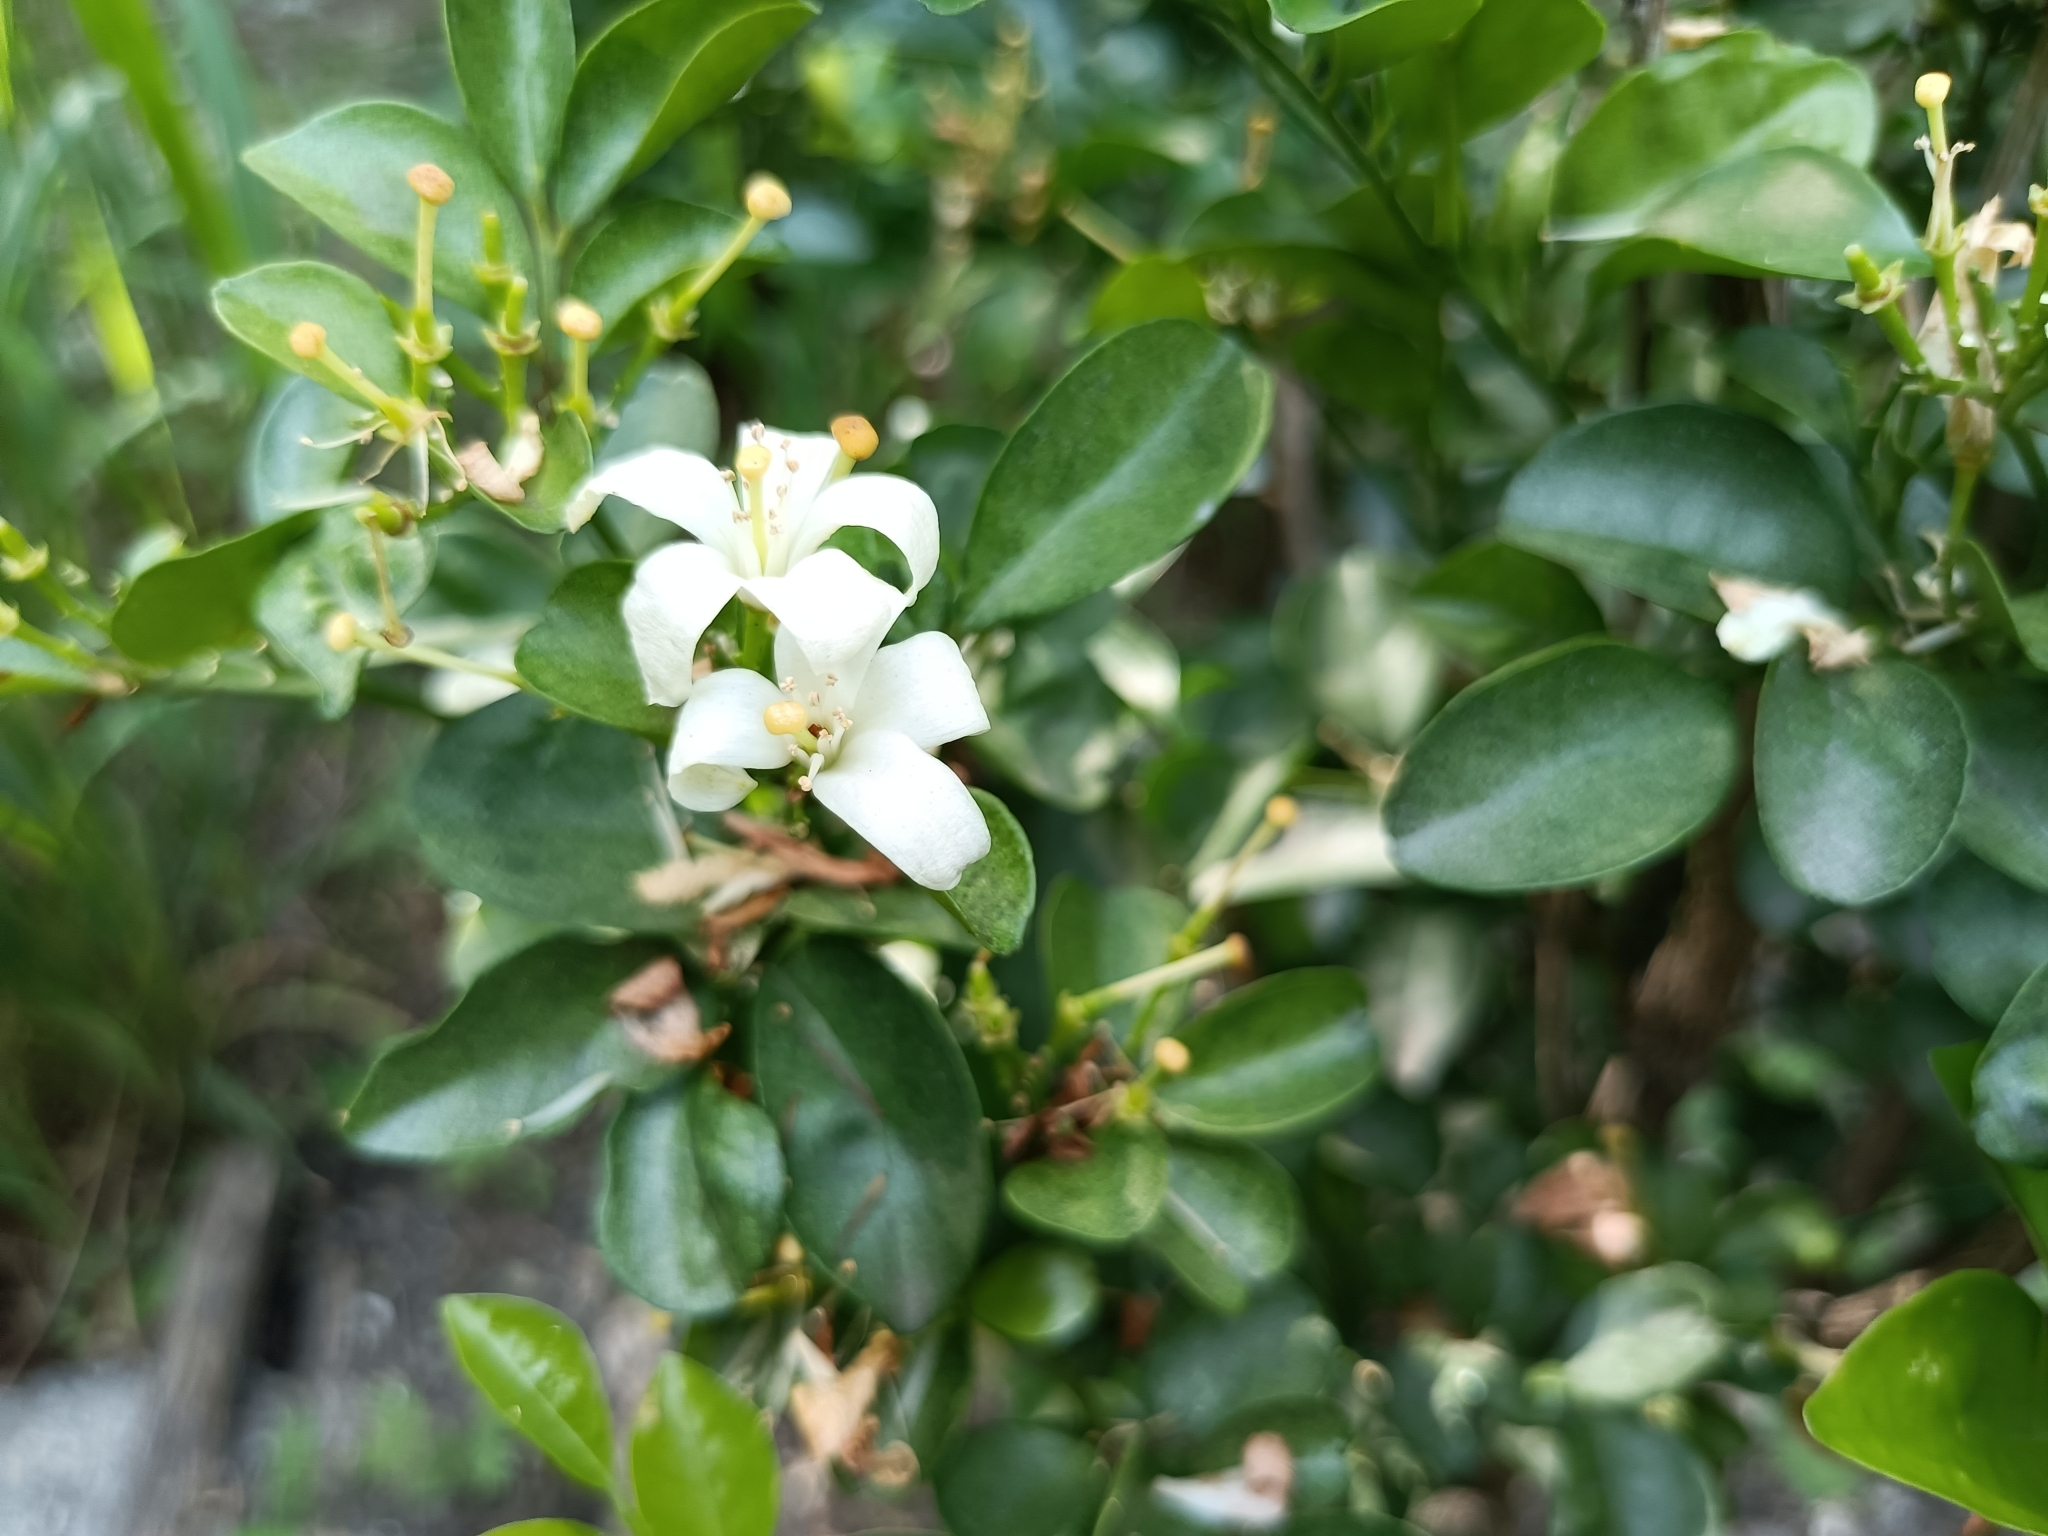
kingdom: Plantae
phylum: Tracheophyta
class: Magnoliopsida
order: Sapindales
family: Rutaceae
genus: Murraya
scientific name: Murraya paniculata
